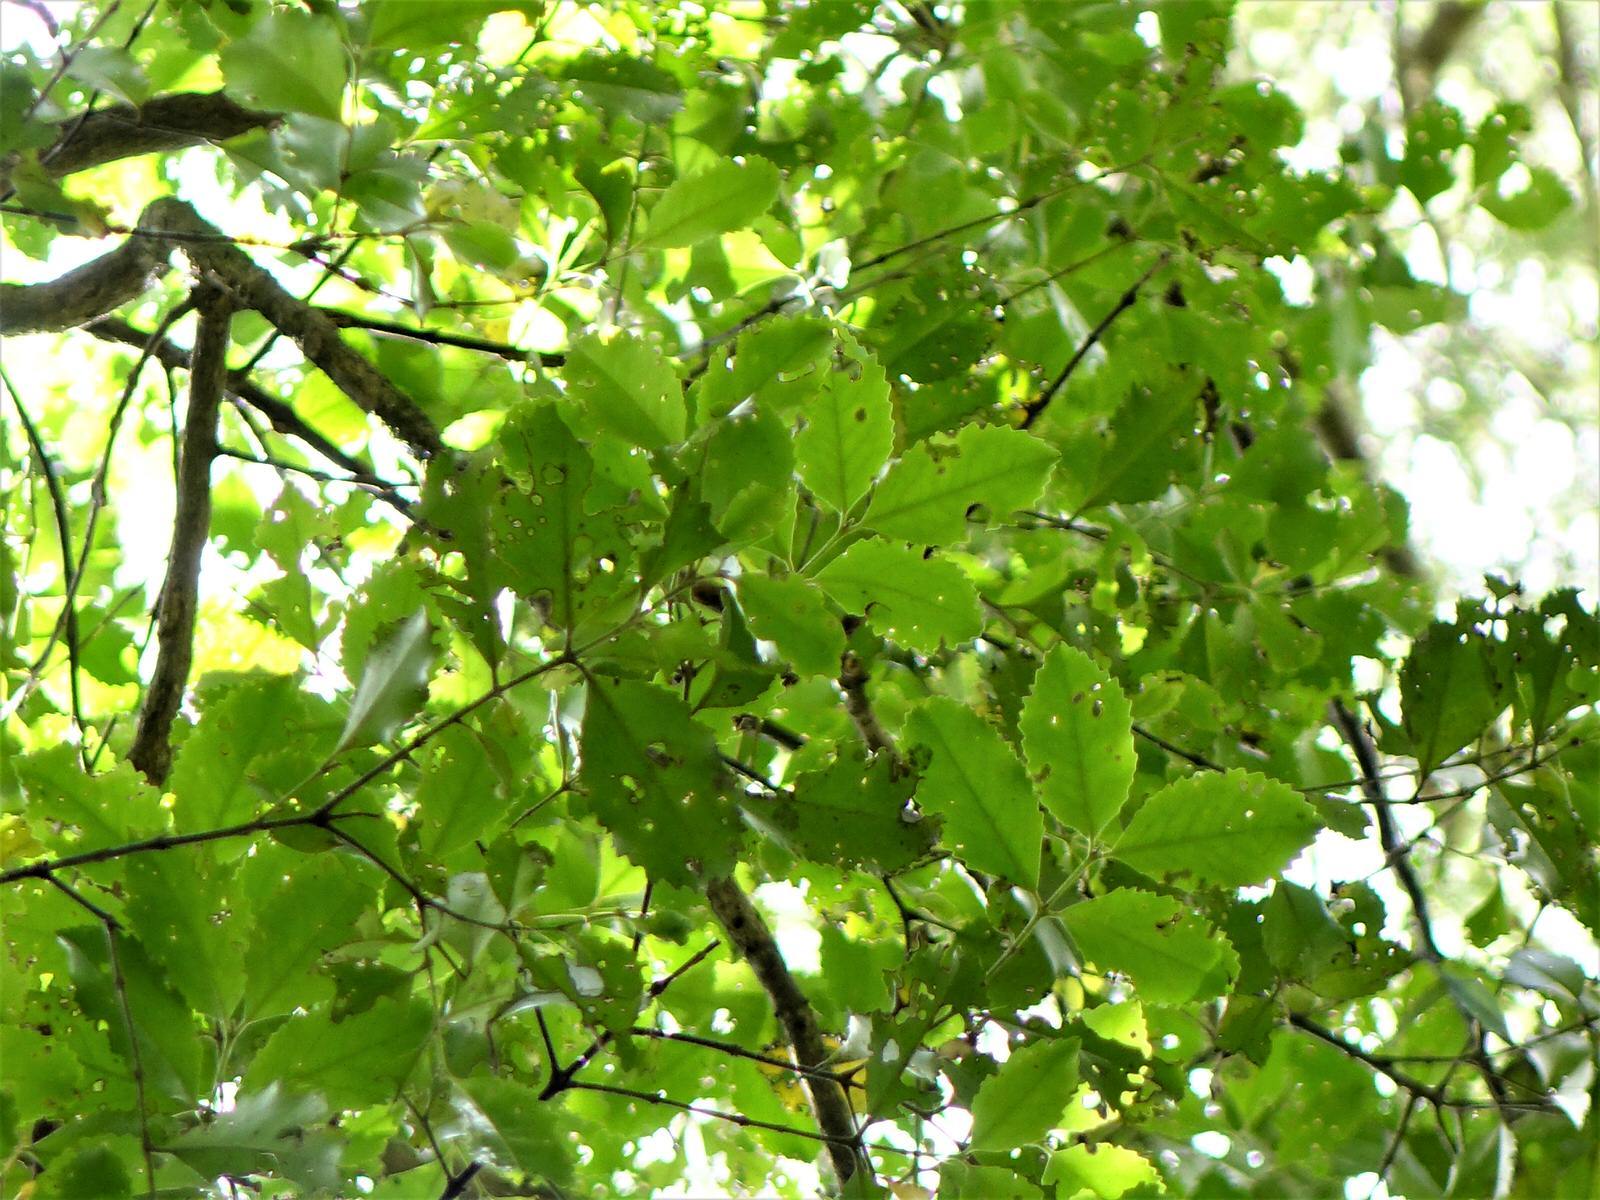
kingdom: Plantae
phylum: Tracheophyta
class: Magnoliopsida
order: Laurales
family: Atherospermataceae
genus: Laurelia
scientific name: Laurelia novae-zelandiae
